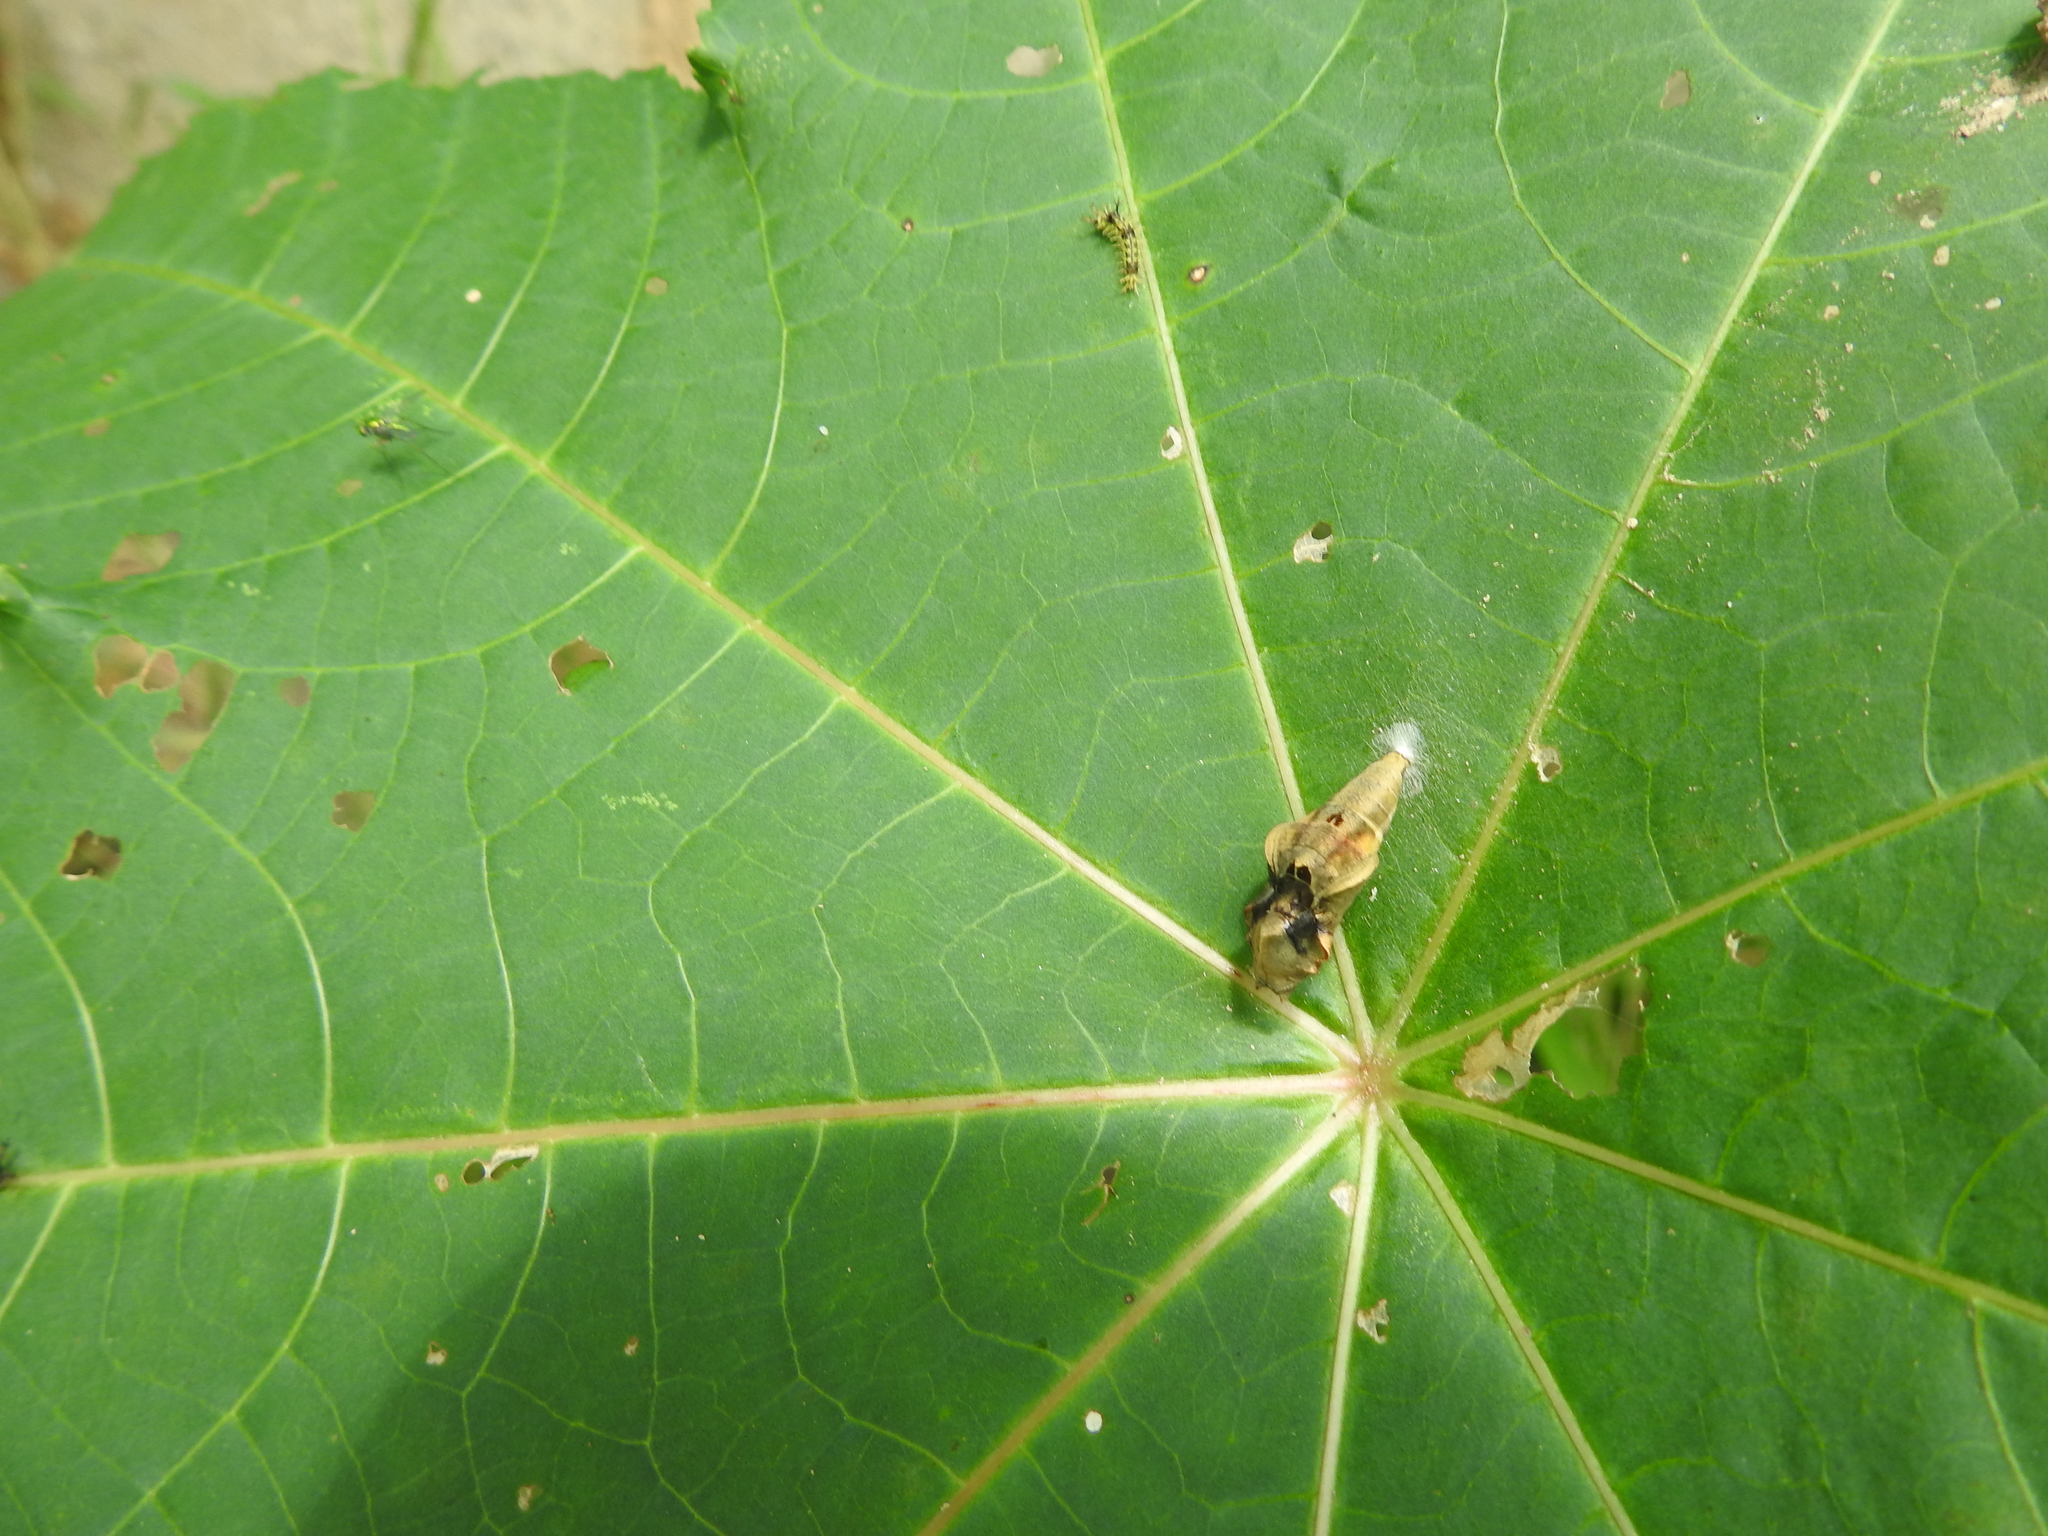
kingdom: Animalia
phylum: Arthropoda
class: Insecta
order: Lepidoptera
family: Nymphalidae
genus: Ariadne
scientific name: Ariadne merione
